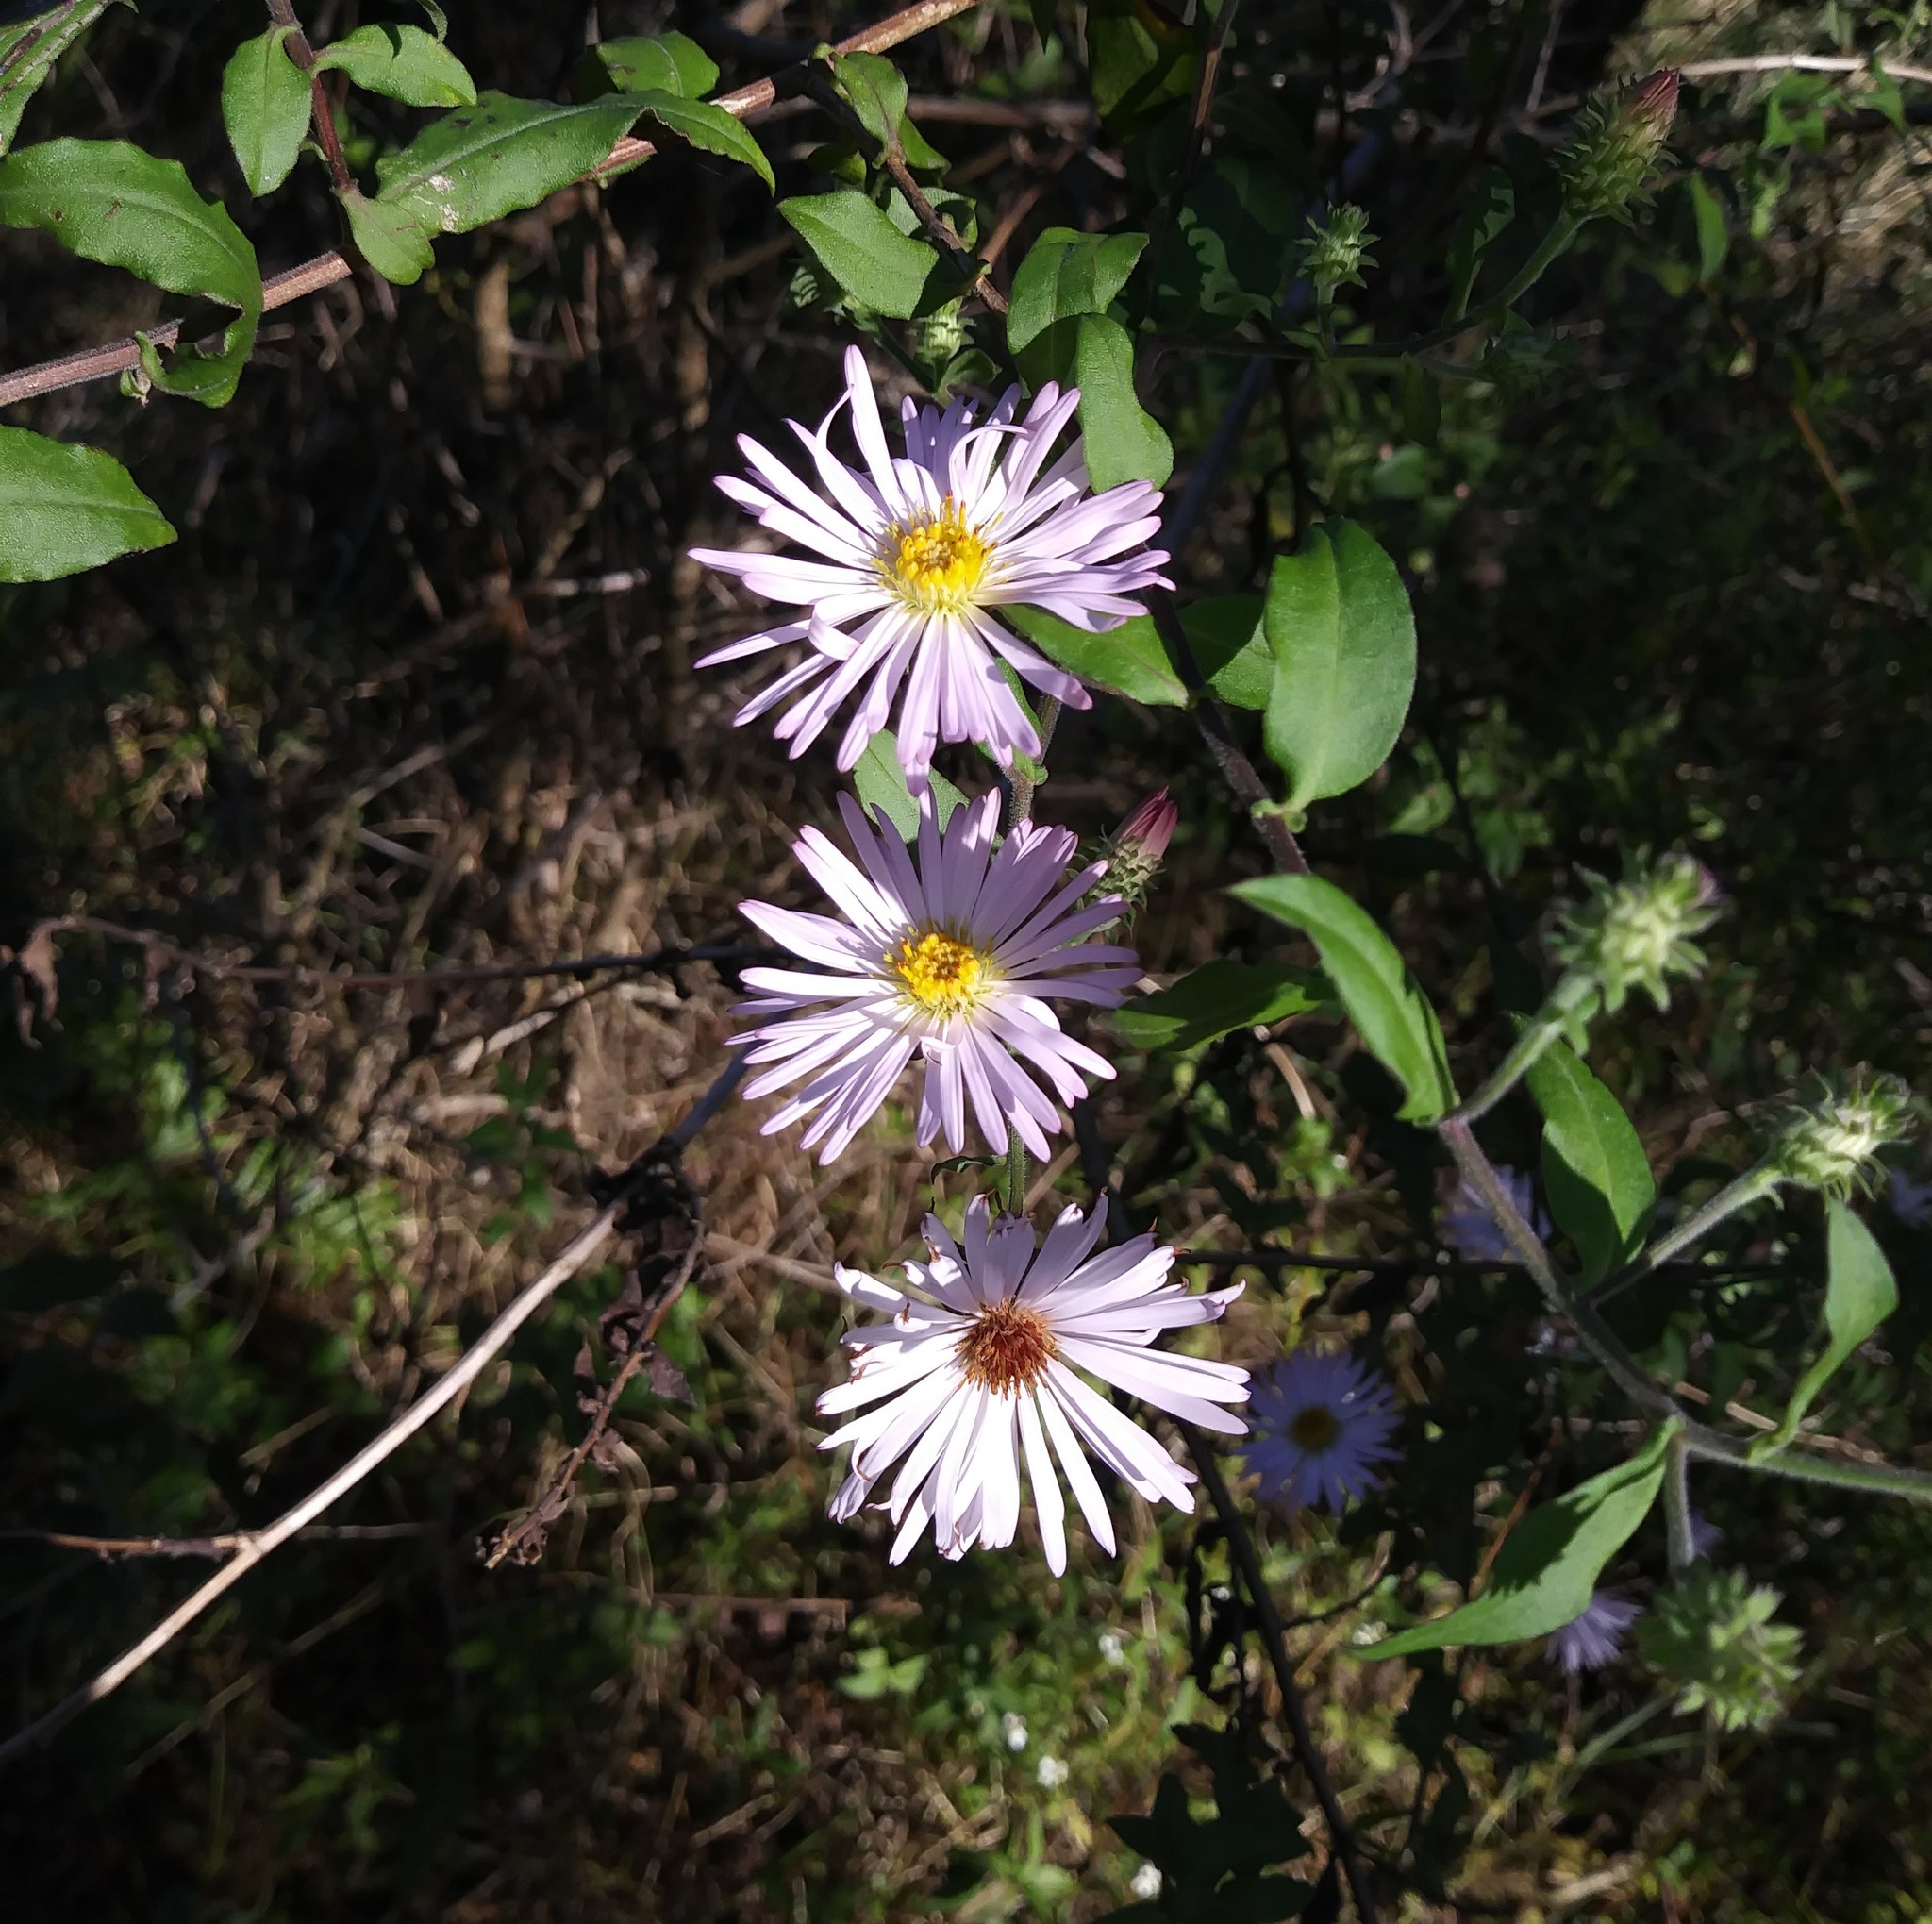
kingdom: Plantae
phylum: Tracheophyta
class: Magnoliopsida
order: Asterales
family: Asteraceae
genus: Ampelaster
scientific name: Ampelaster carolinianus
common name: Climbing aster
